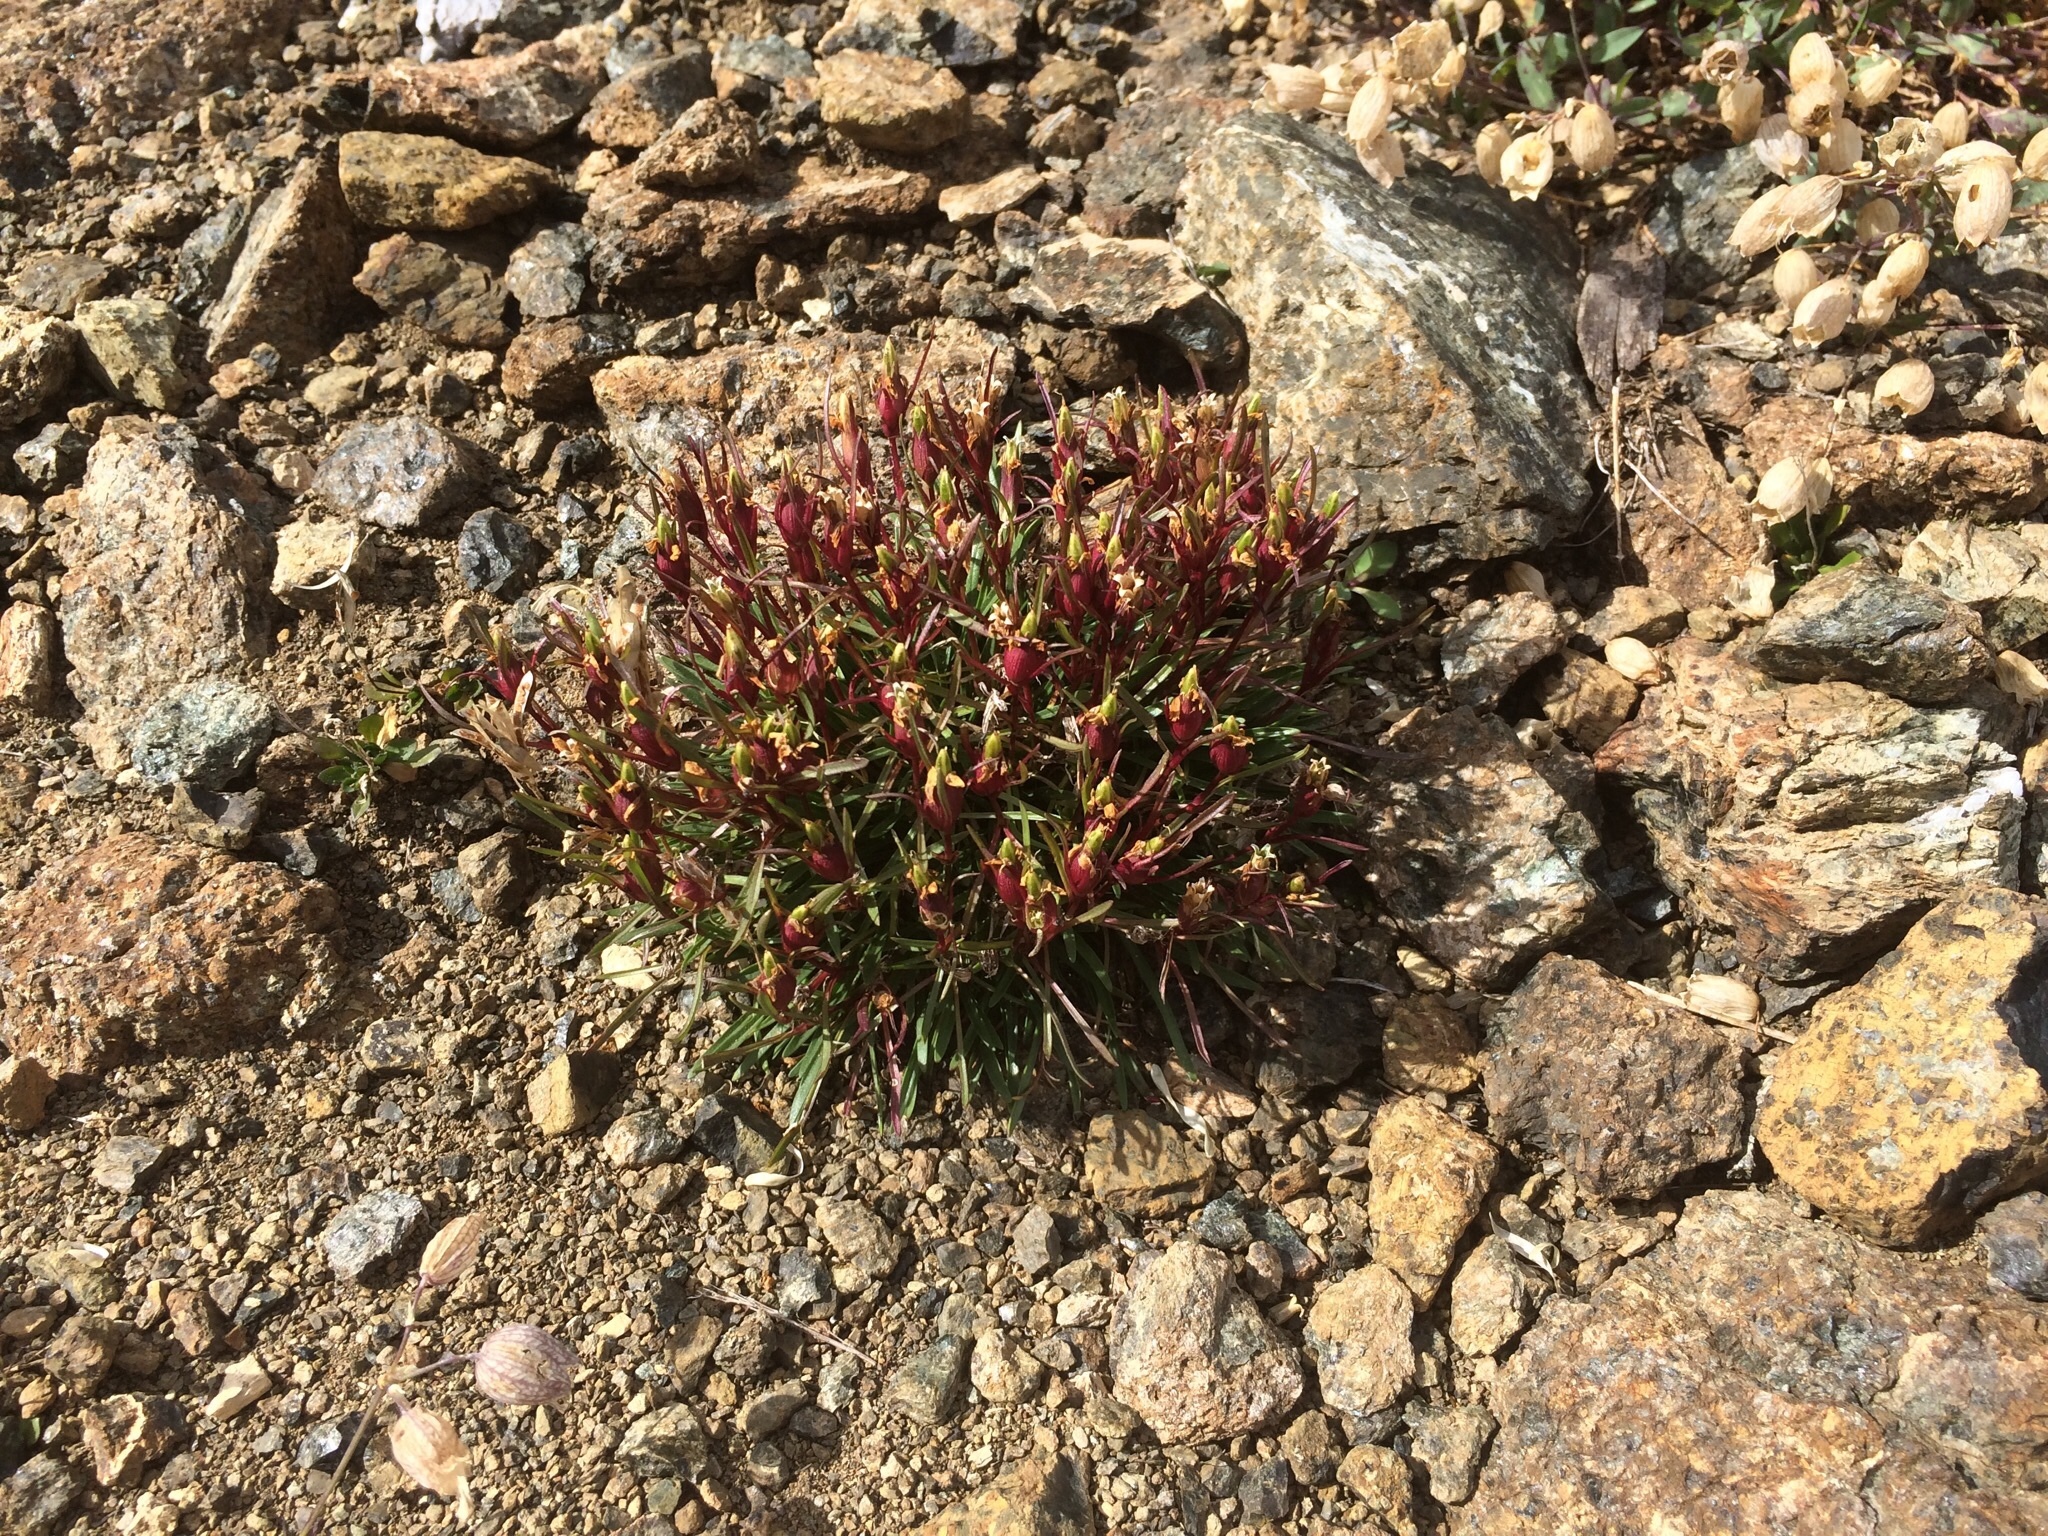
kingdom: Plantae
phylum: Tracheophyta
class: Magnoliopsida
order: Caryophyllales
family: Caryophyllaceae
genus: Dianthus
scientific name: Dianthus glacialis
